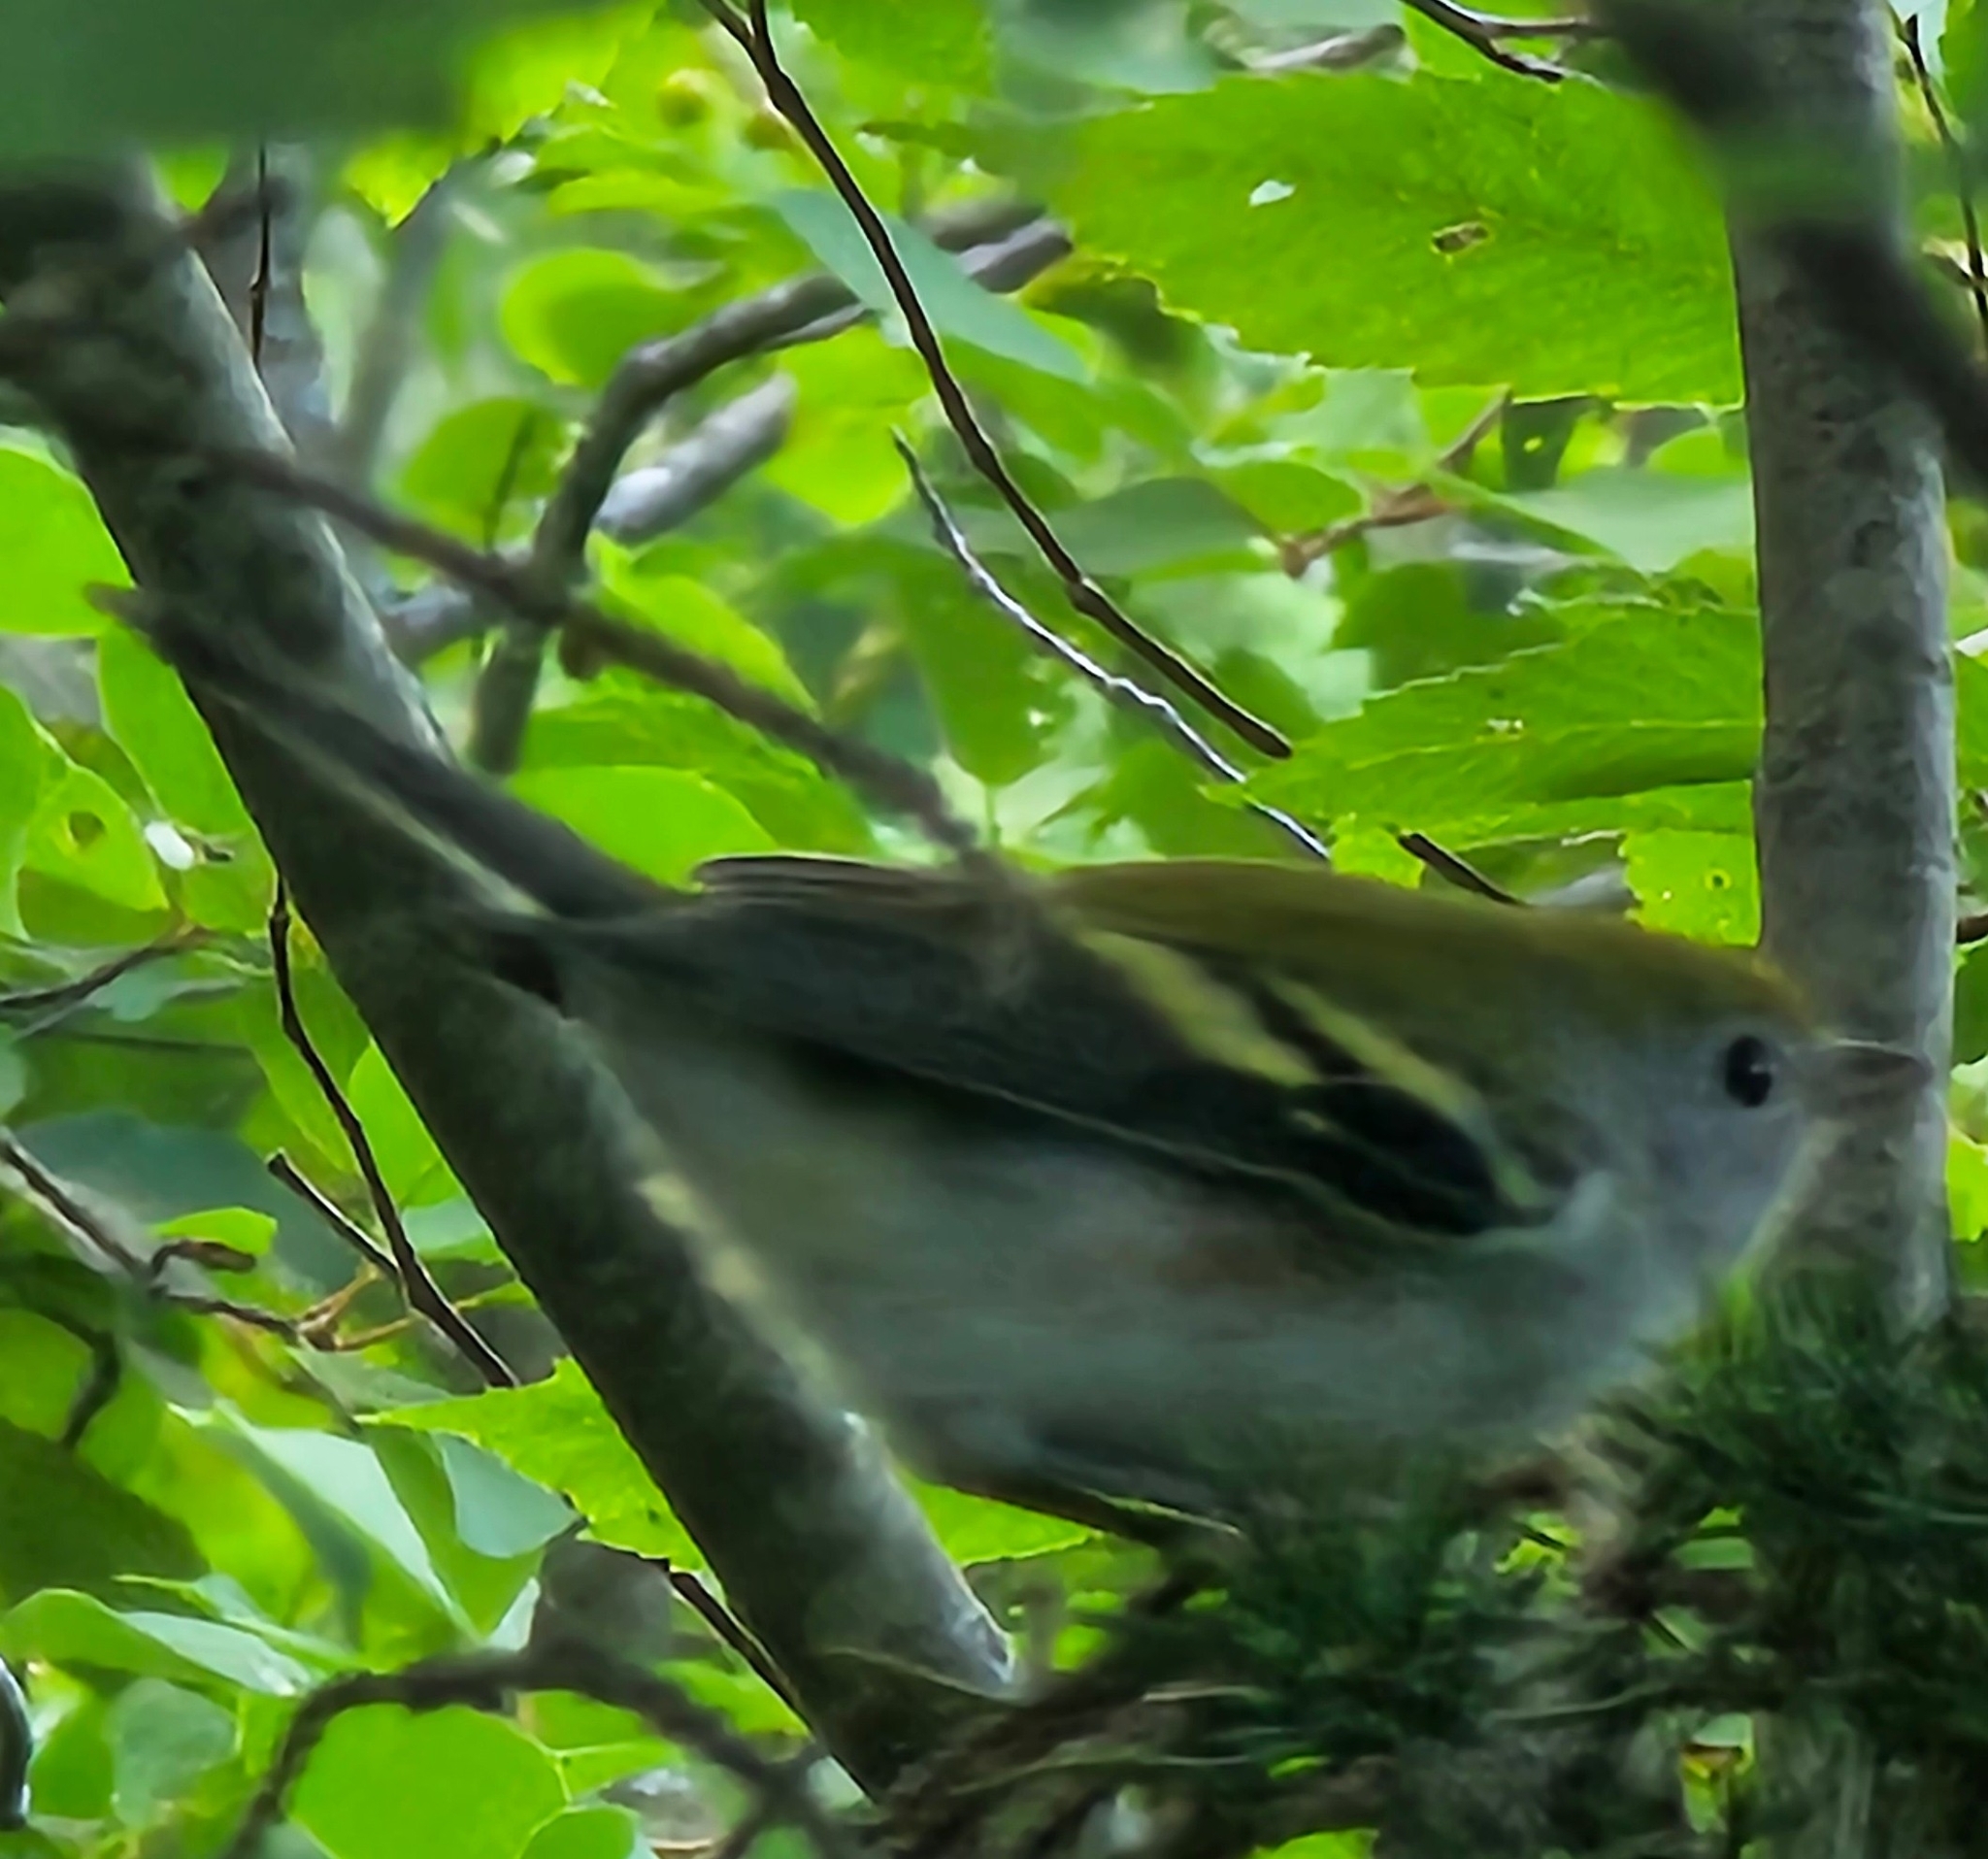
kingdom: Animalia
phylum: Chordata
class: Aves
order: Passeriformes
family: Parulidae
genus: Setophaga
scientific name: Setophaga pensylvanica
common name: Chestnut-sided warbler
